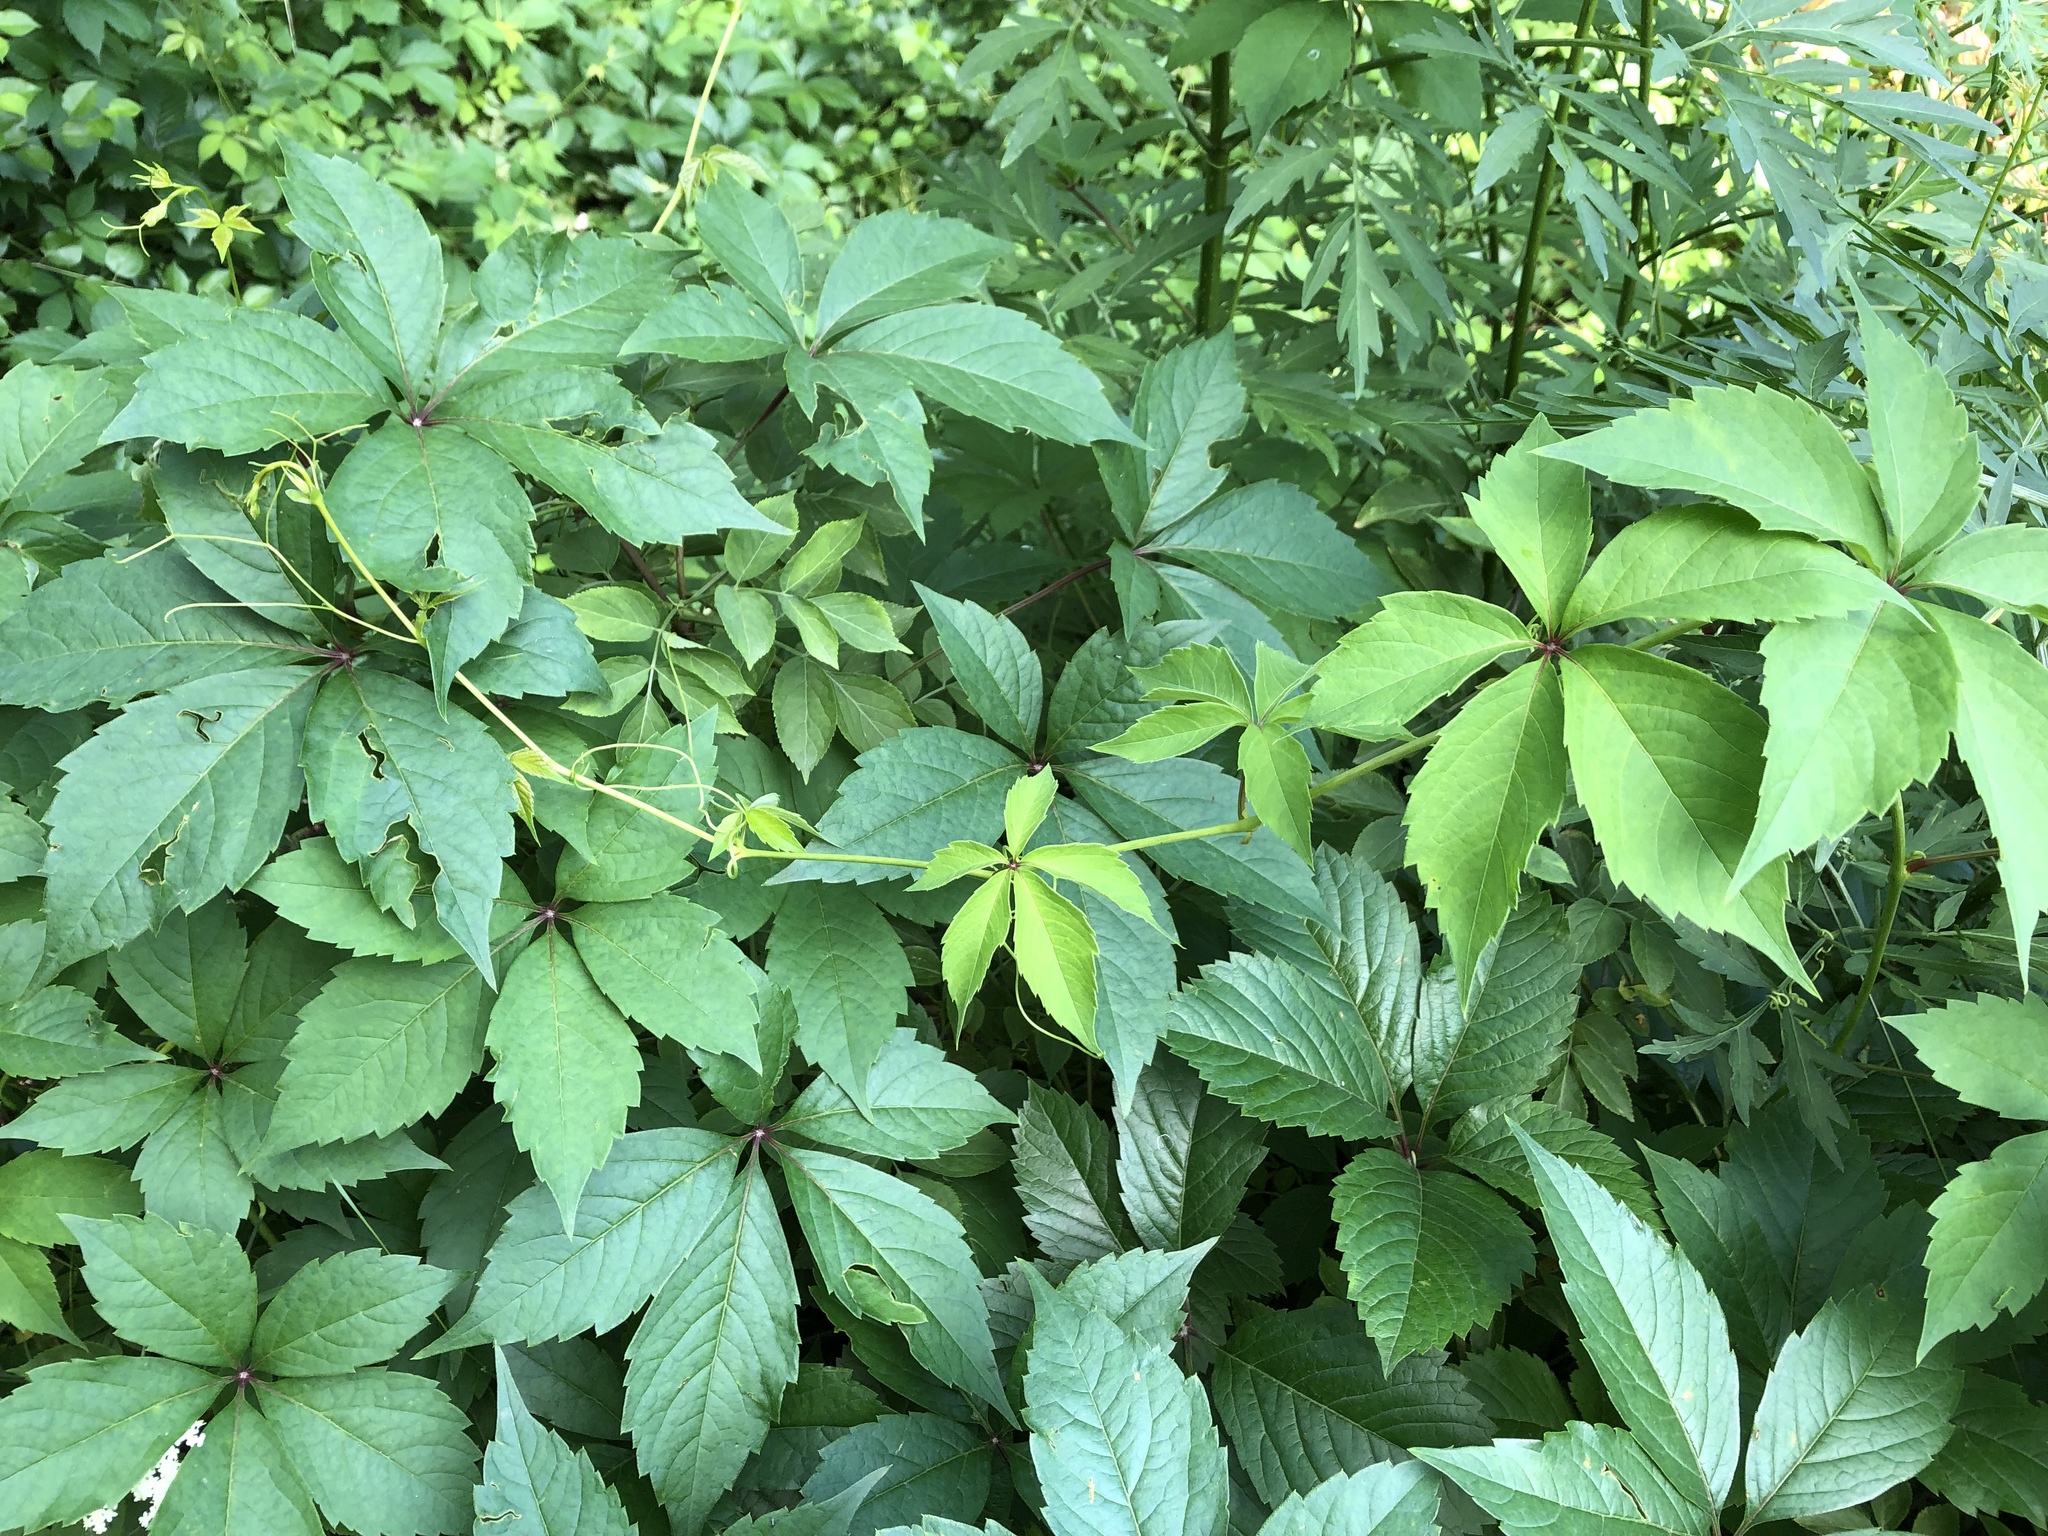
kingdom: Plantae
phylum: Tracheophyta
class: Magnoliopsida
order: Vitales
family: Vitaceae
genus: Parthenocissus
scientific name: Parthenocissus quinquefolia
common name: Virginia-creeper
